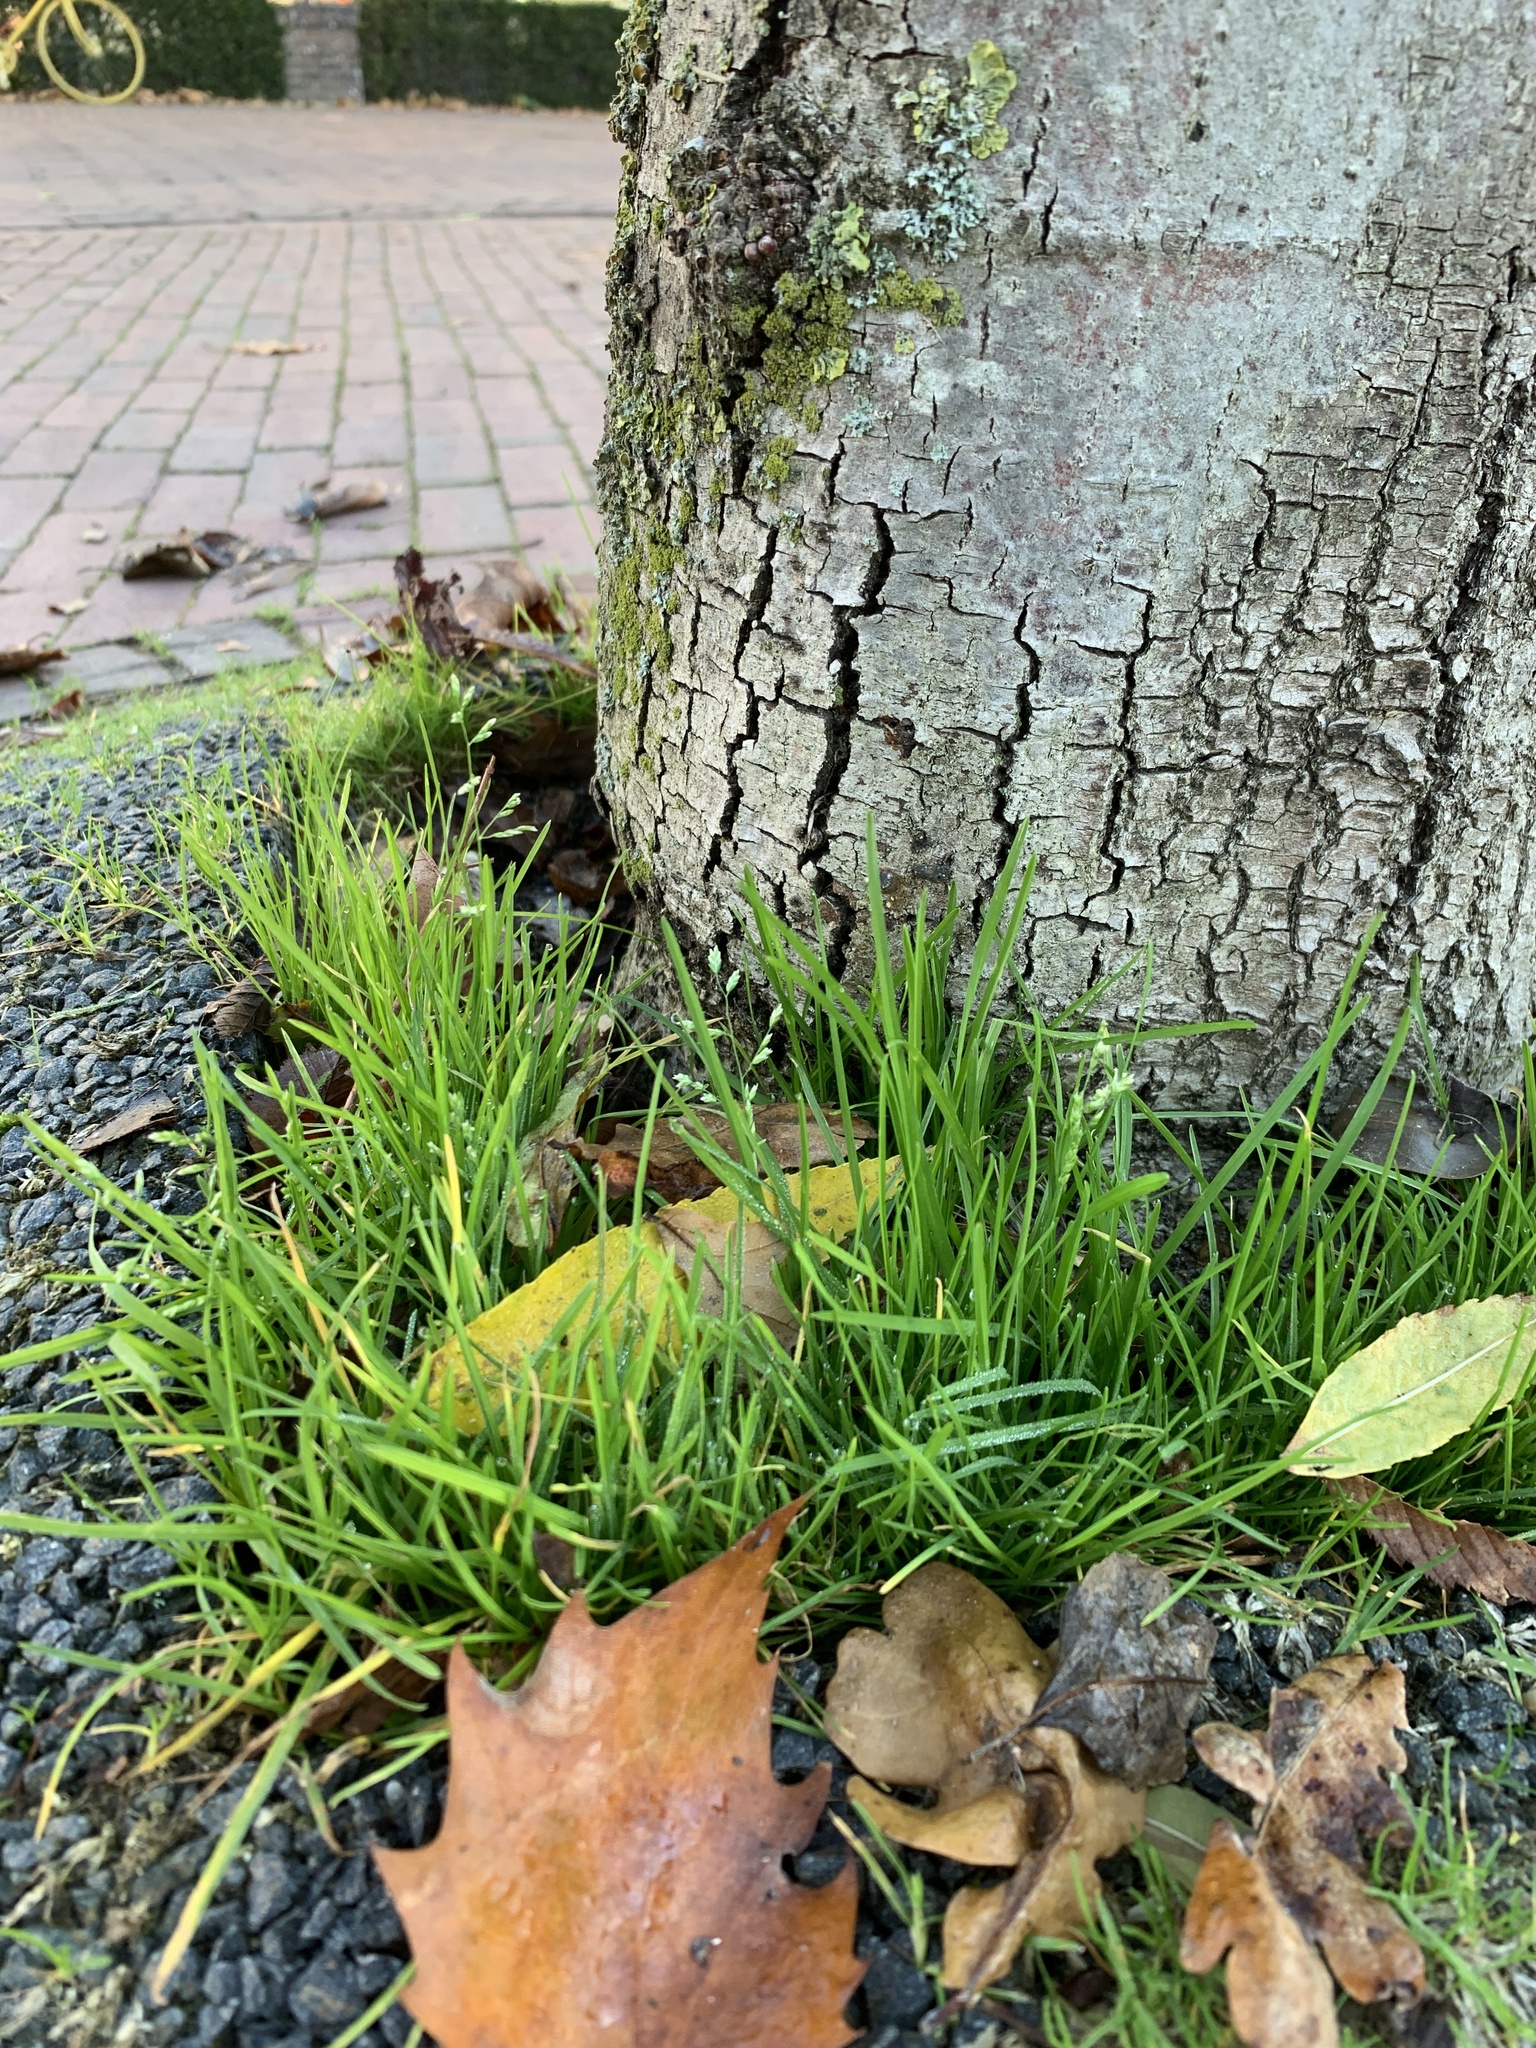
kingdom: Plantae
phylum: Tracheophyta
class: Liliopsida
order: Poales
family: Poaceae
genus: Poa
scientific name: Poa annua
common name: Annual bluegrass
